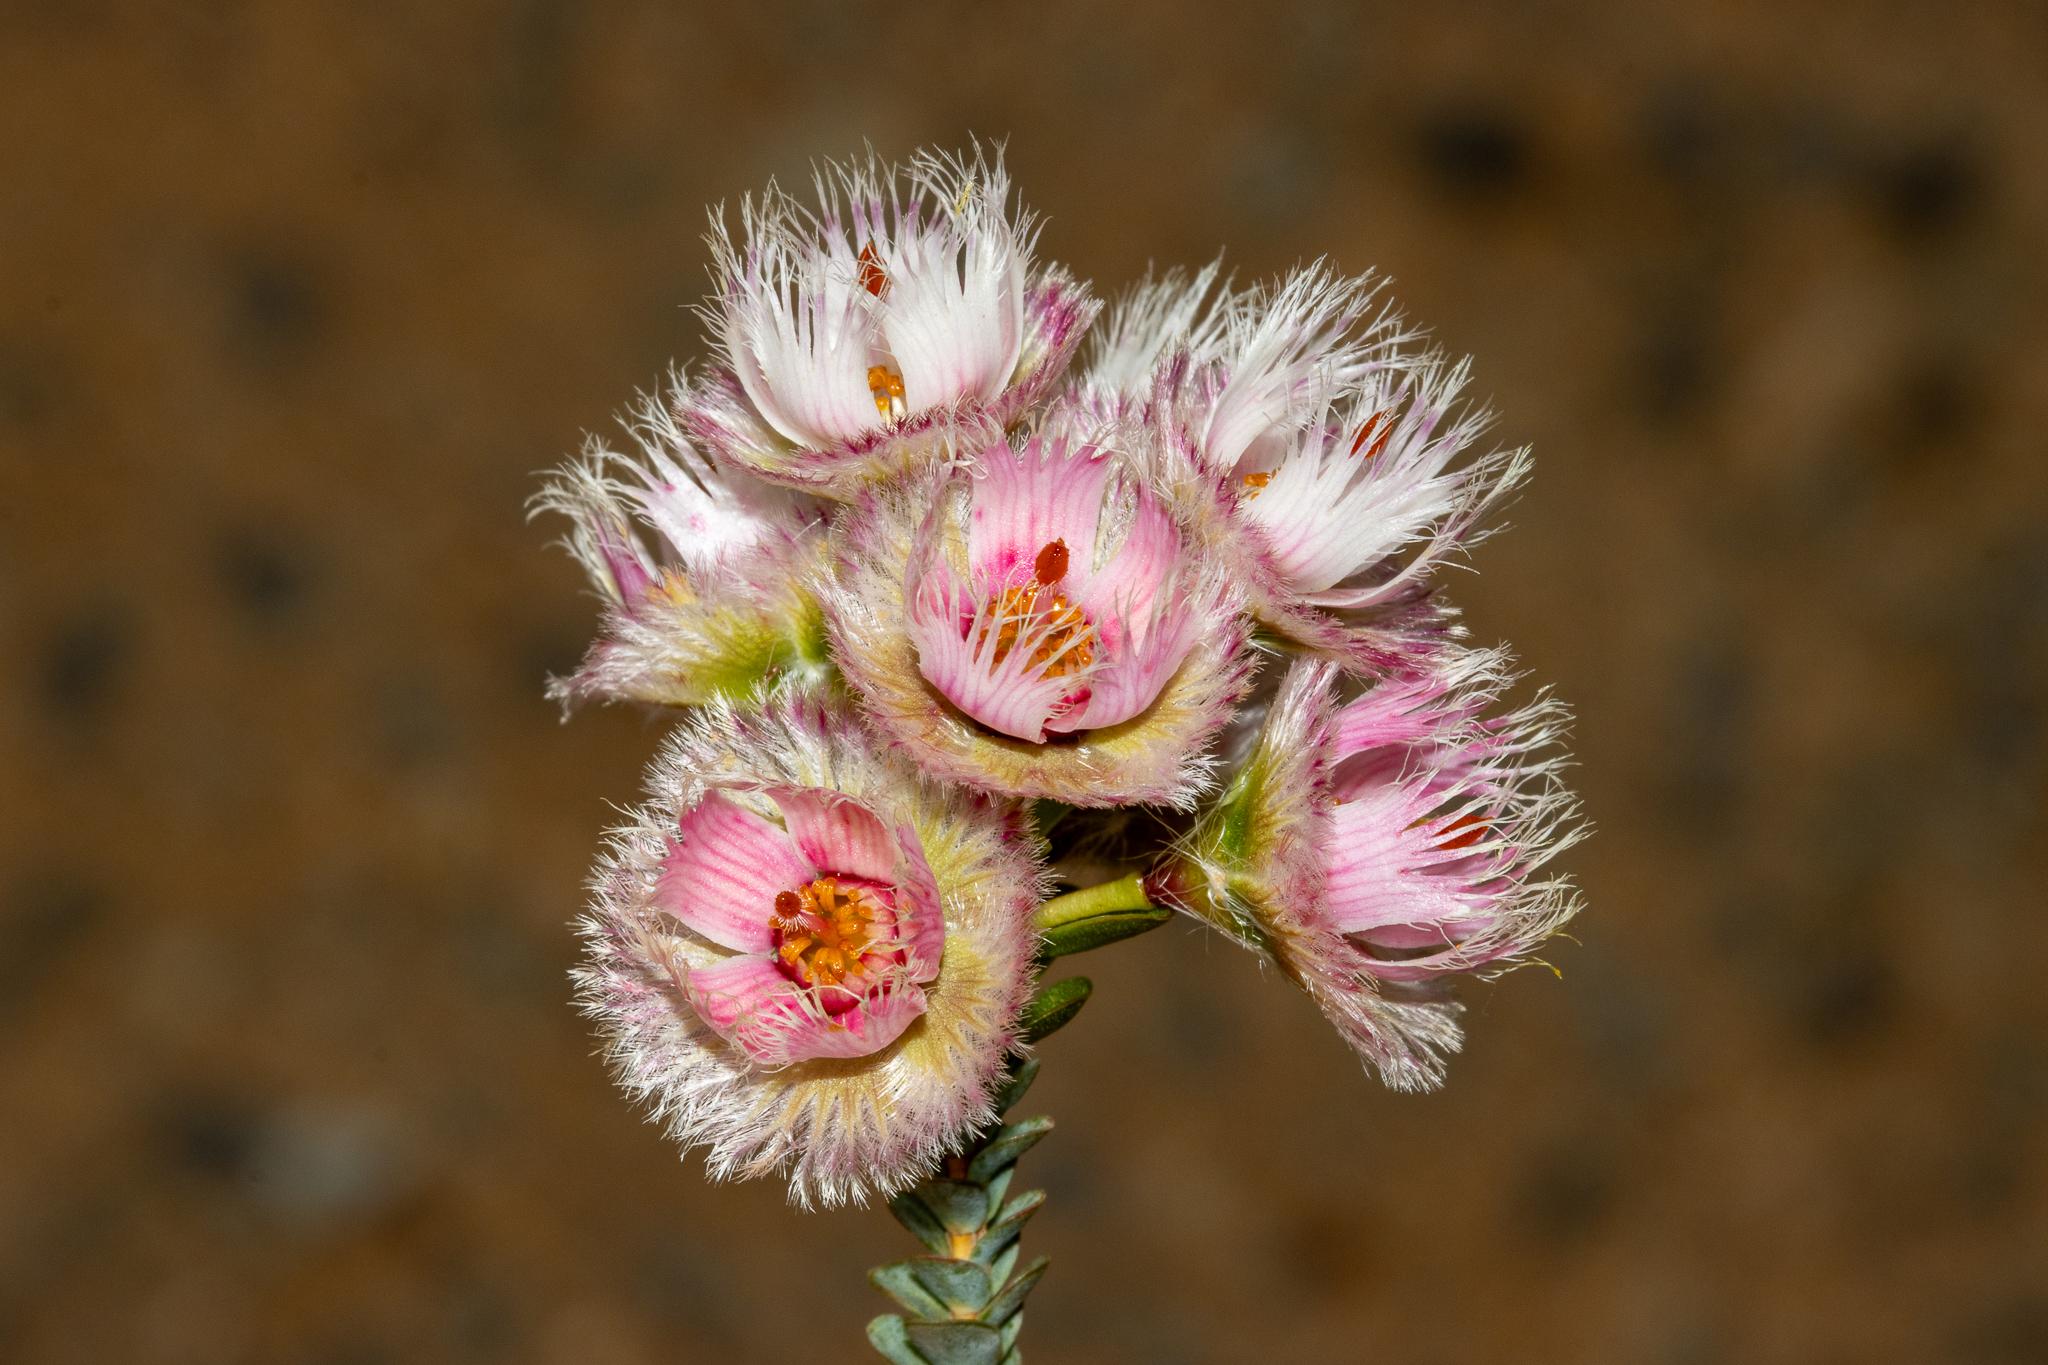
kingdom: Plantae
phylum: Tracheophyta
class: Magnoliopsida
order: Myrtales
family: Myrtaceae
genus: Verticordia
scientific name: Verticordia ovalifolia
